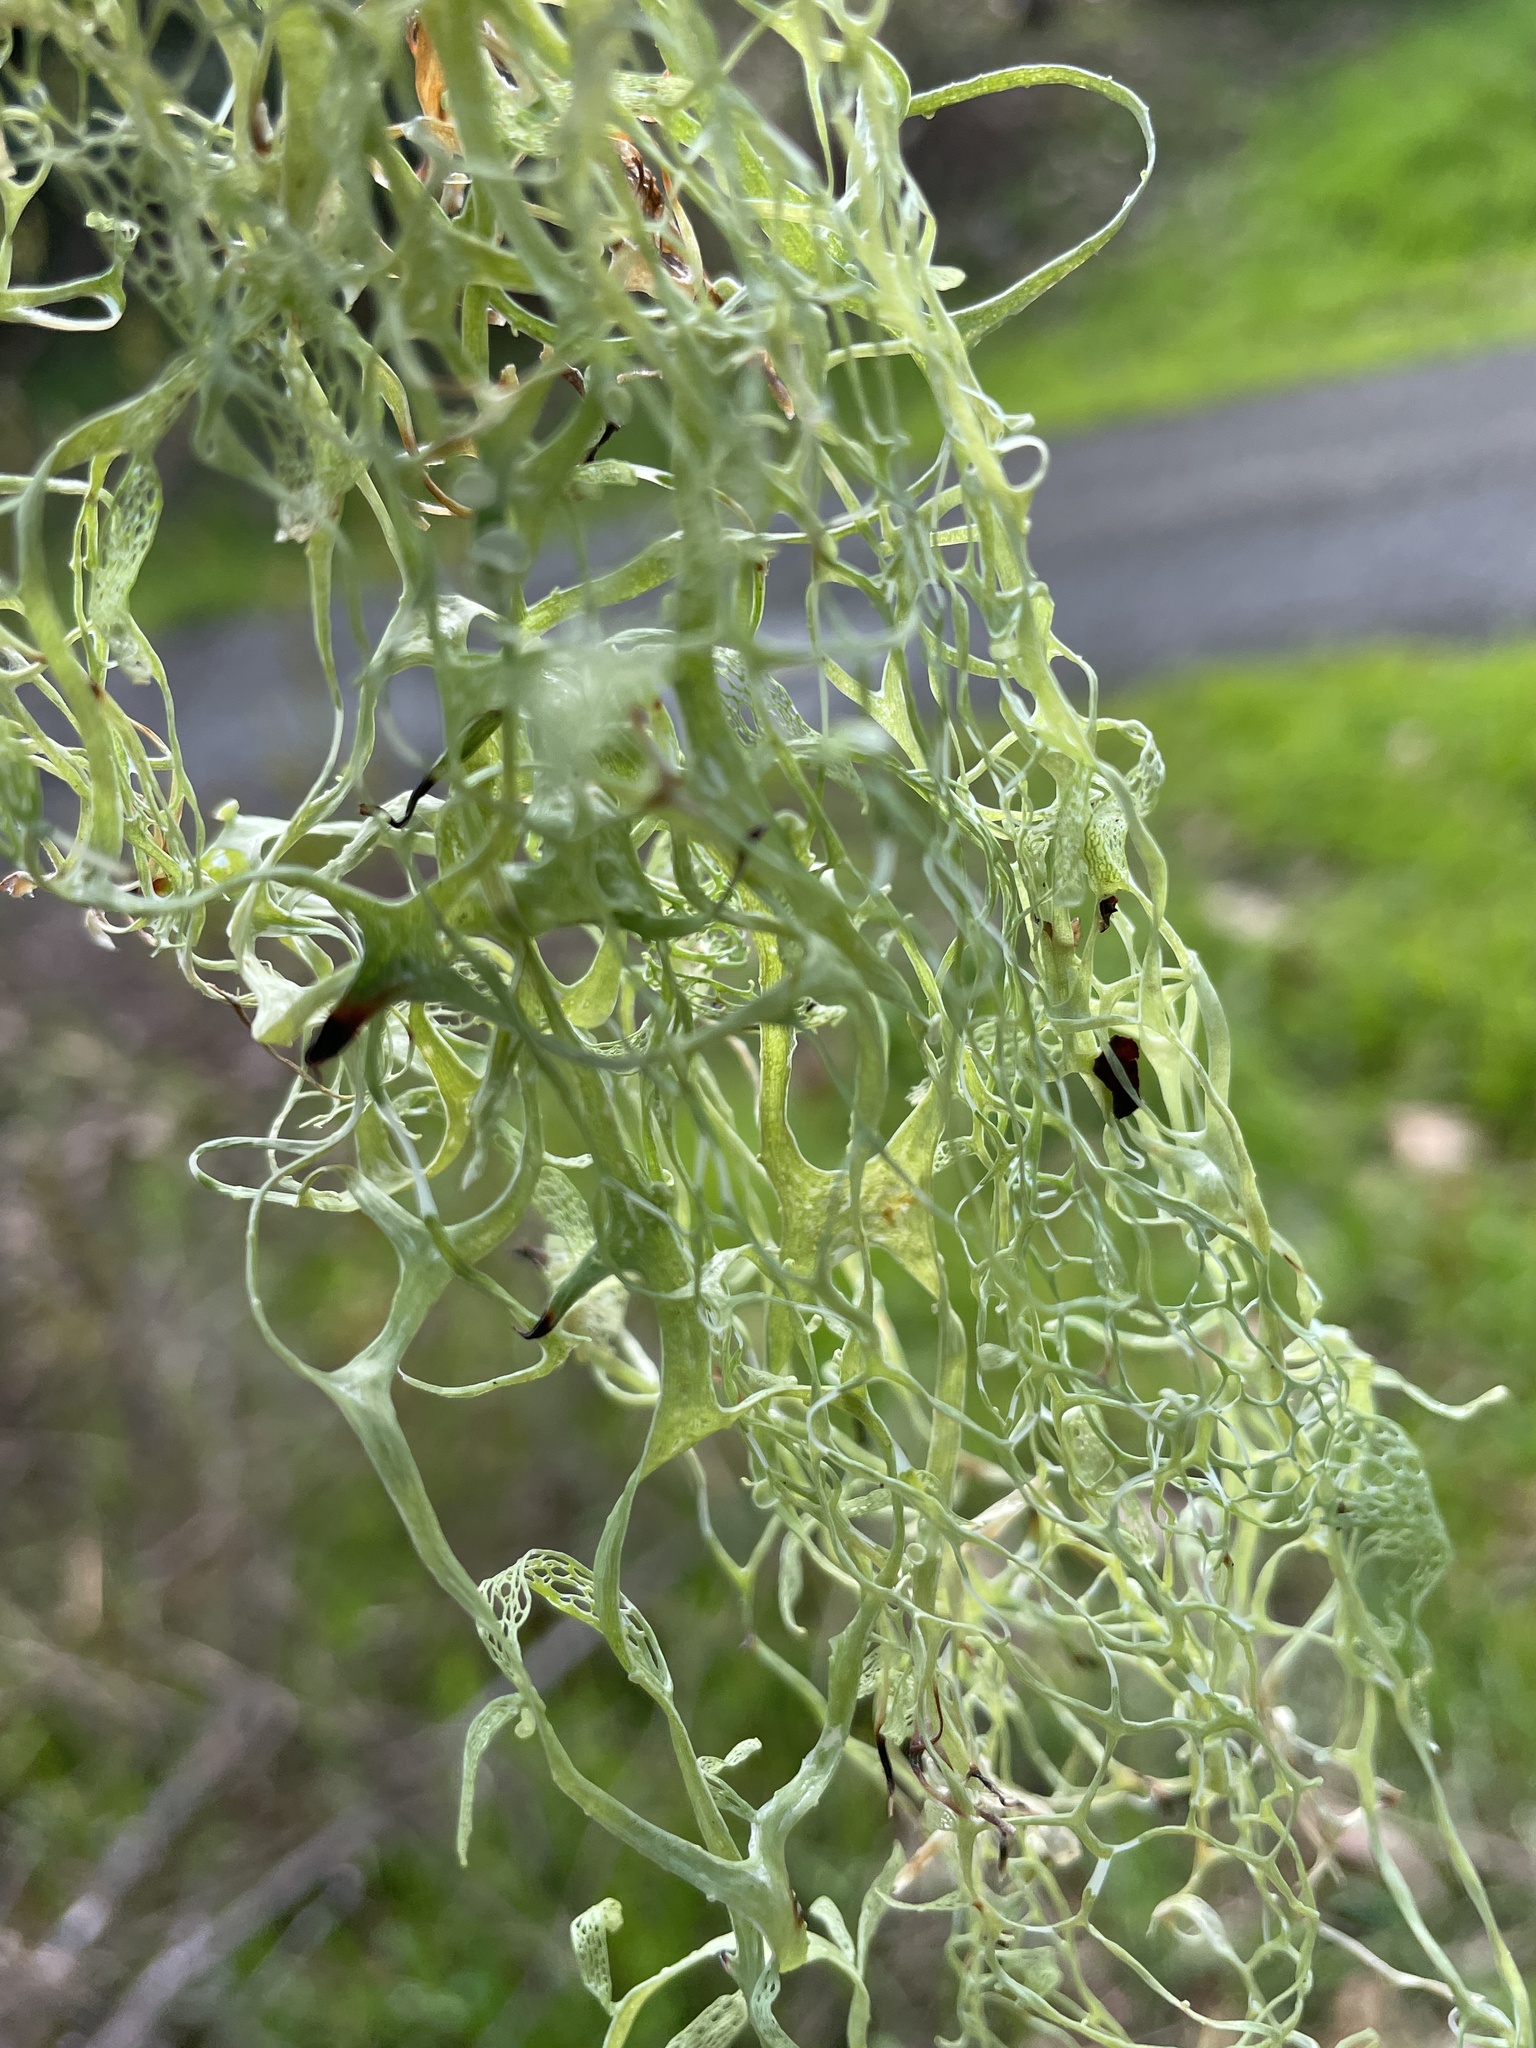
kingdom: Fungi
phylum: Ascomycota
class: Lecanoromycetes
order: Lecanorales
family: Ramalinaceae
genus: Ramalina
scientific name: Ramalina menziesii
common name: Lace lichen
